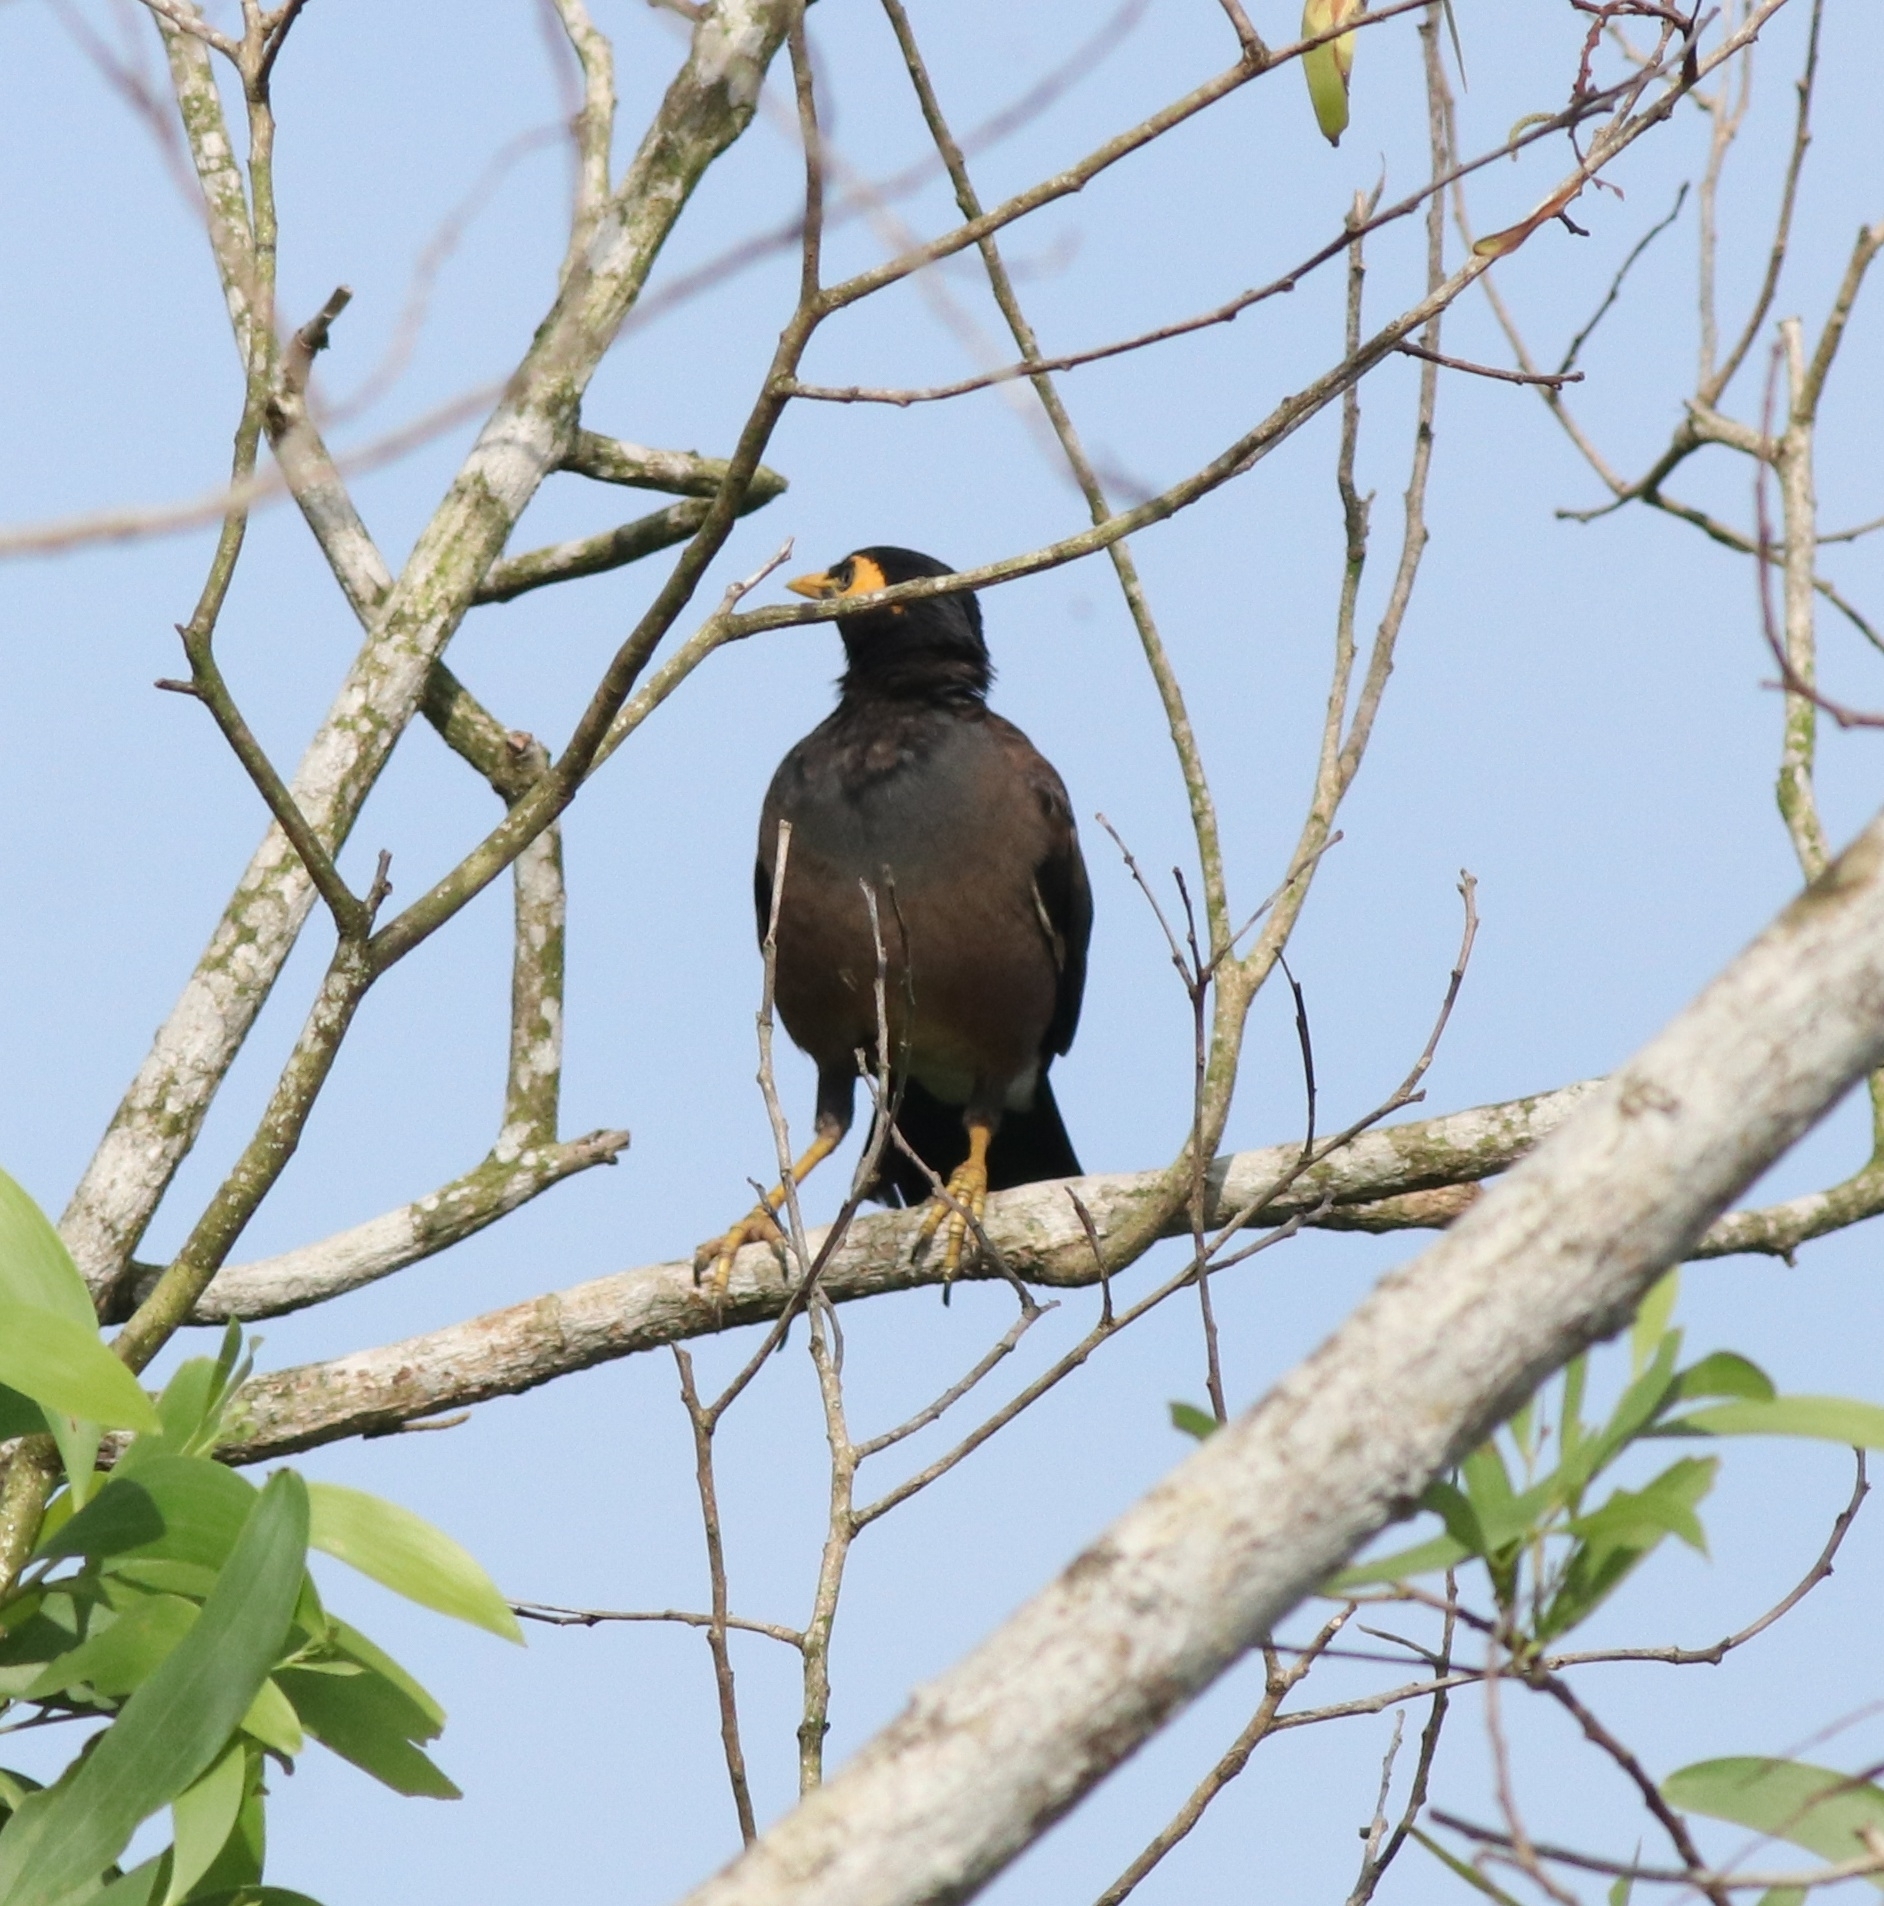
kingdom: Animalia
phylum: Chordata
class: Aves
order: Passeriformes
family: Sturnidae
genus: Acridotheres
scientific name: Acridotheres tristis
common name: Common myna
